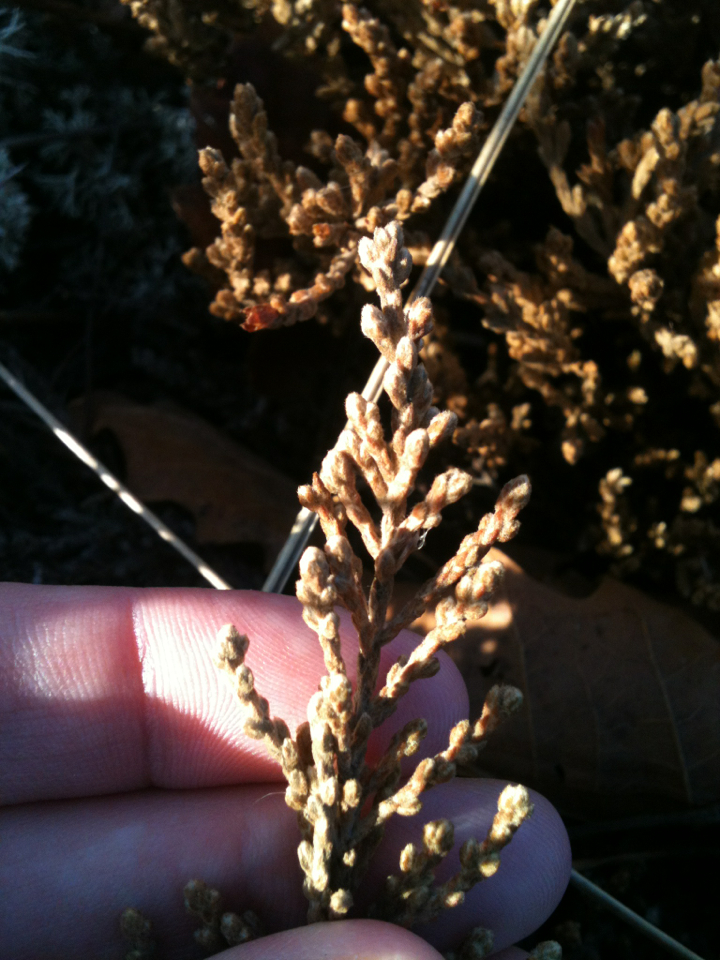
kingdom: Plantae
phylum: Tracheophyta
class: Magnoliopsida
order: Malvales
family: Cistaceae
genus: Hudsonia
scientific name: Hudsonia tomentosa
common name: Beach-heath
